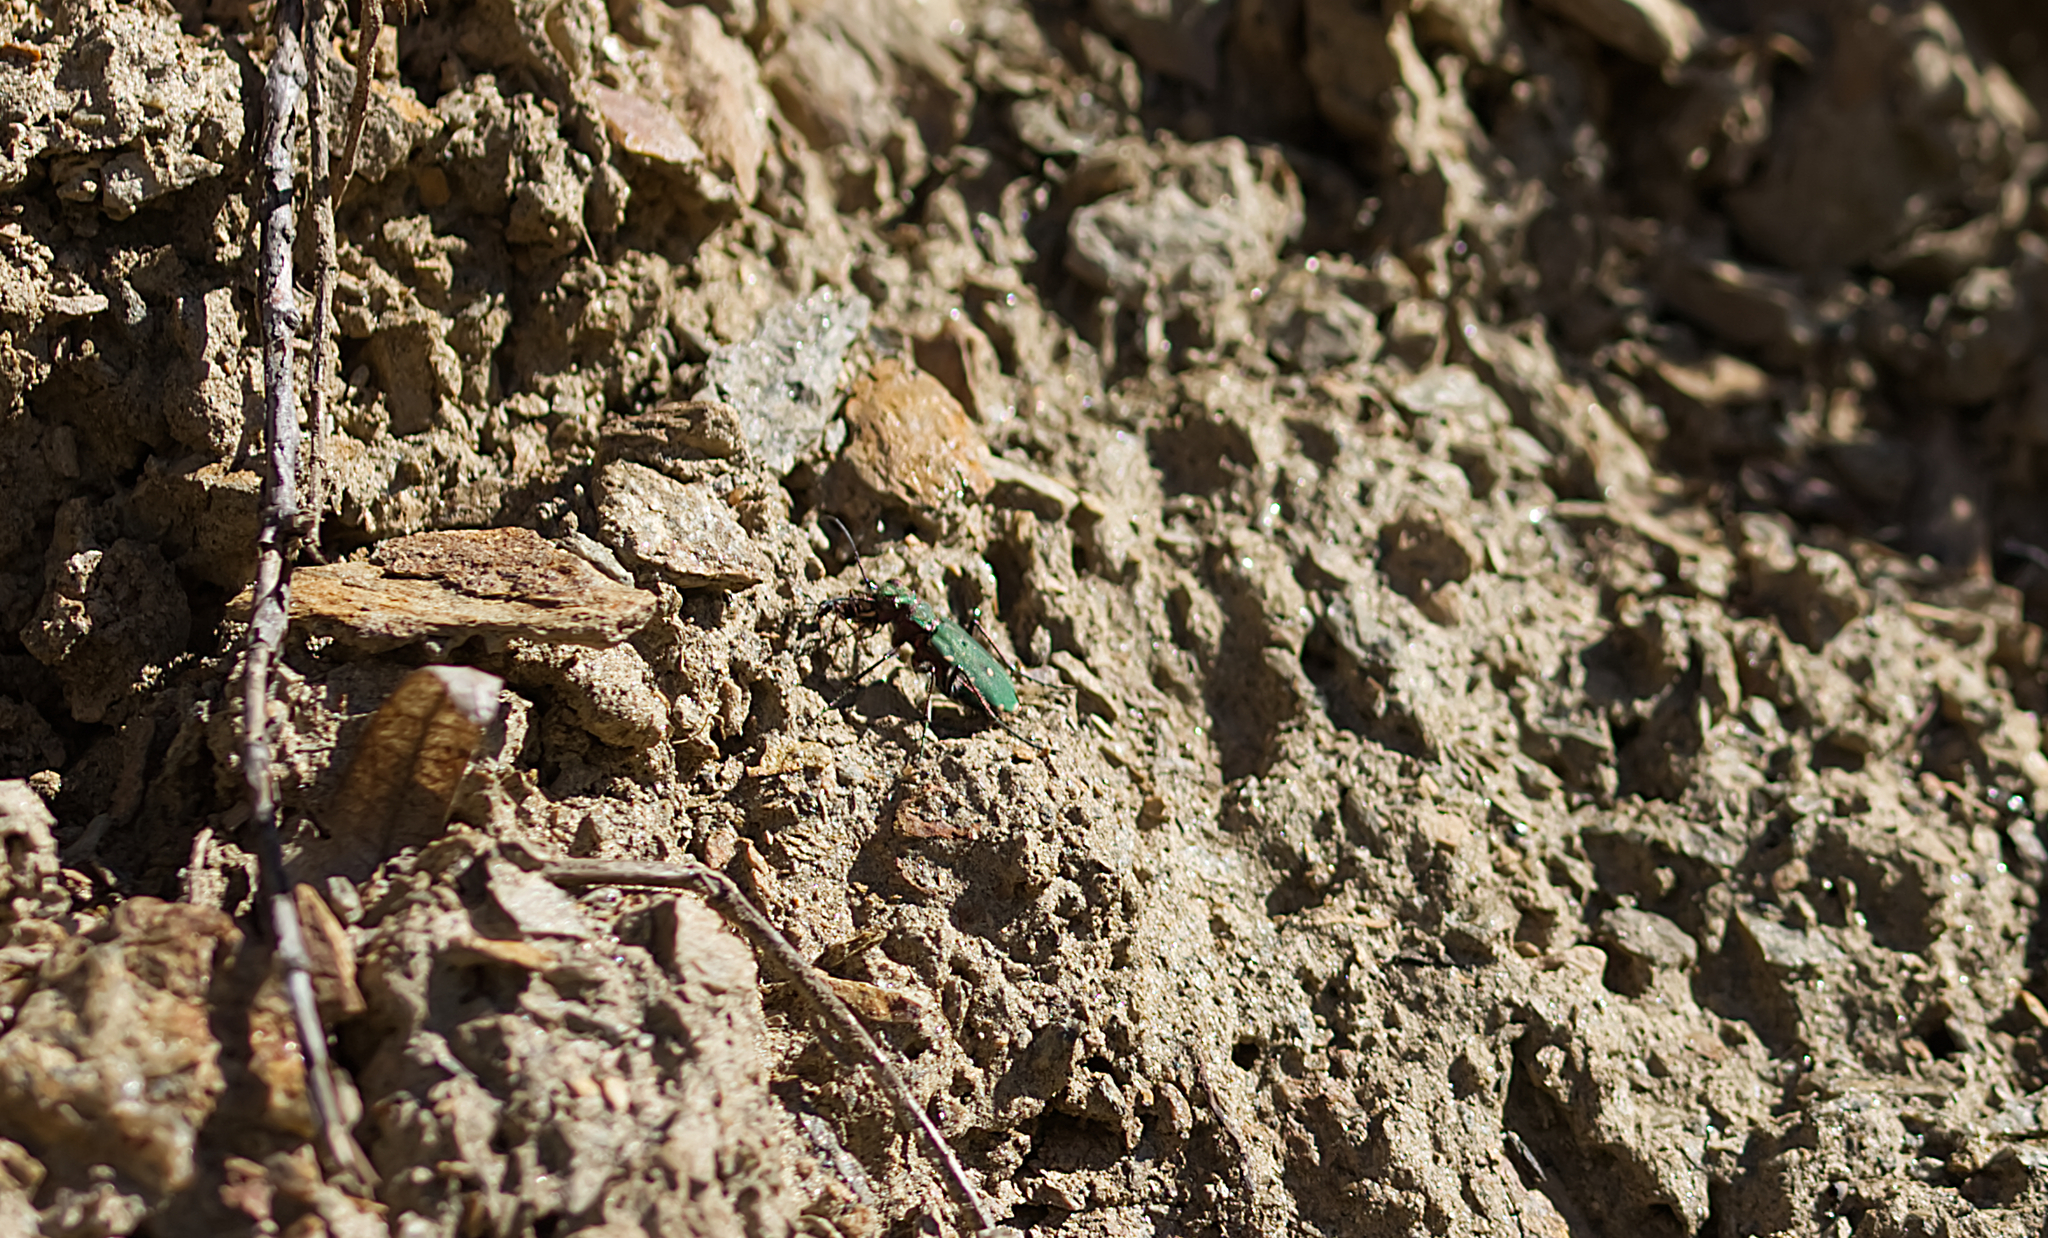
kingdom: Animalia
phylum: Arthropoda
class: Insecta
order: Coleoptera
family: Carabidae
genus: Cicindela
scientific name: Cicindela campestris
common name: Common tiger beetle
